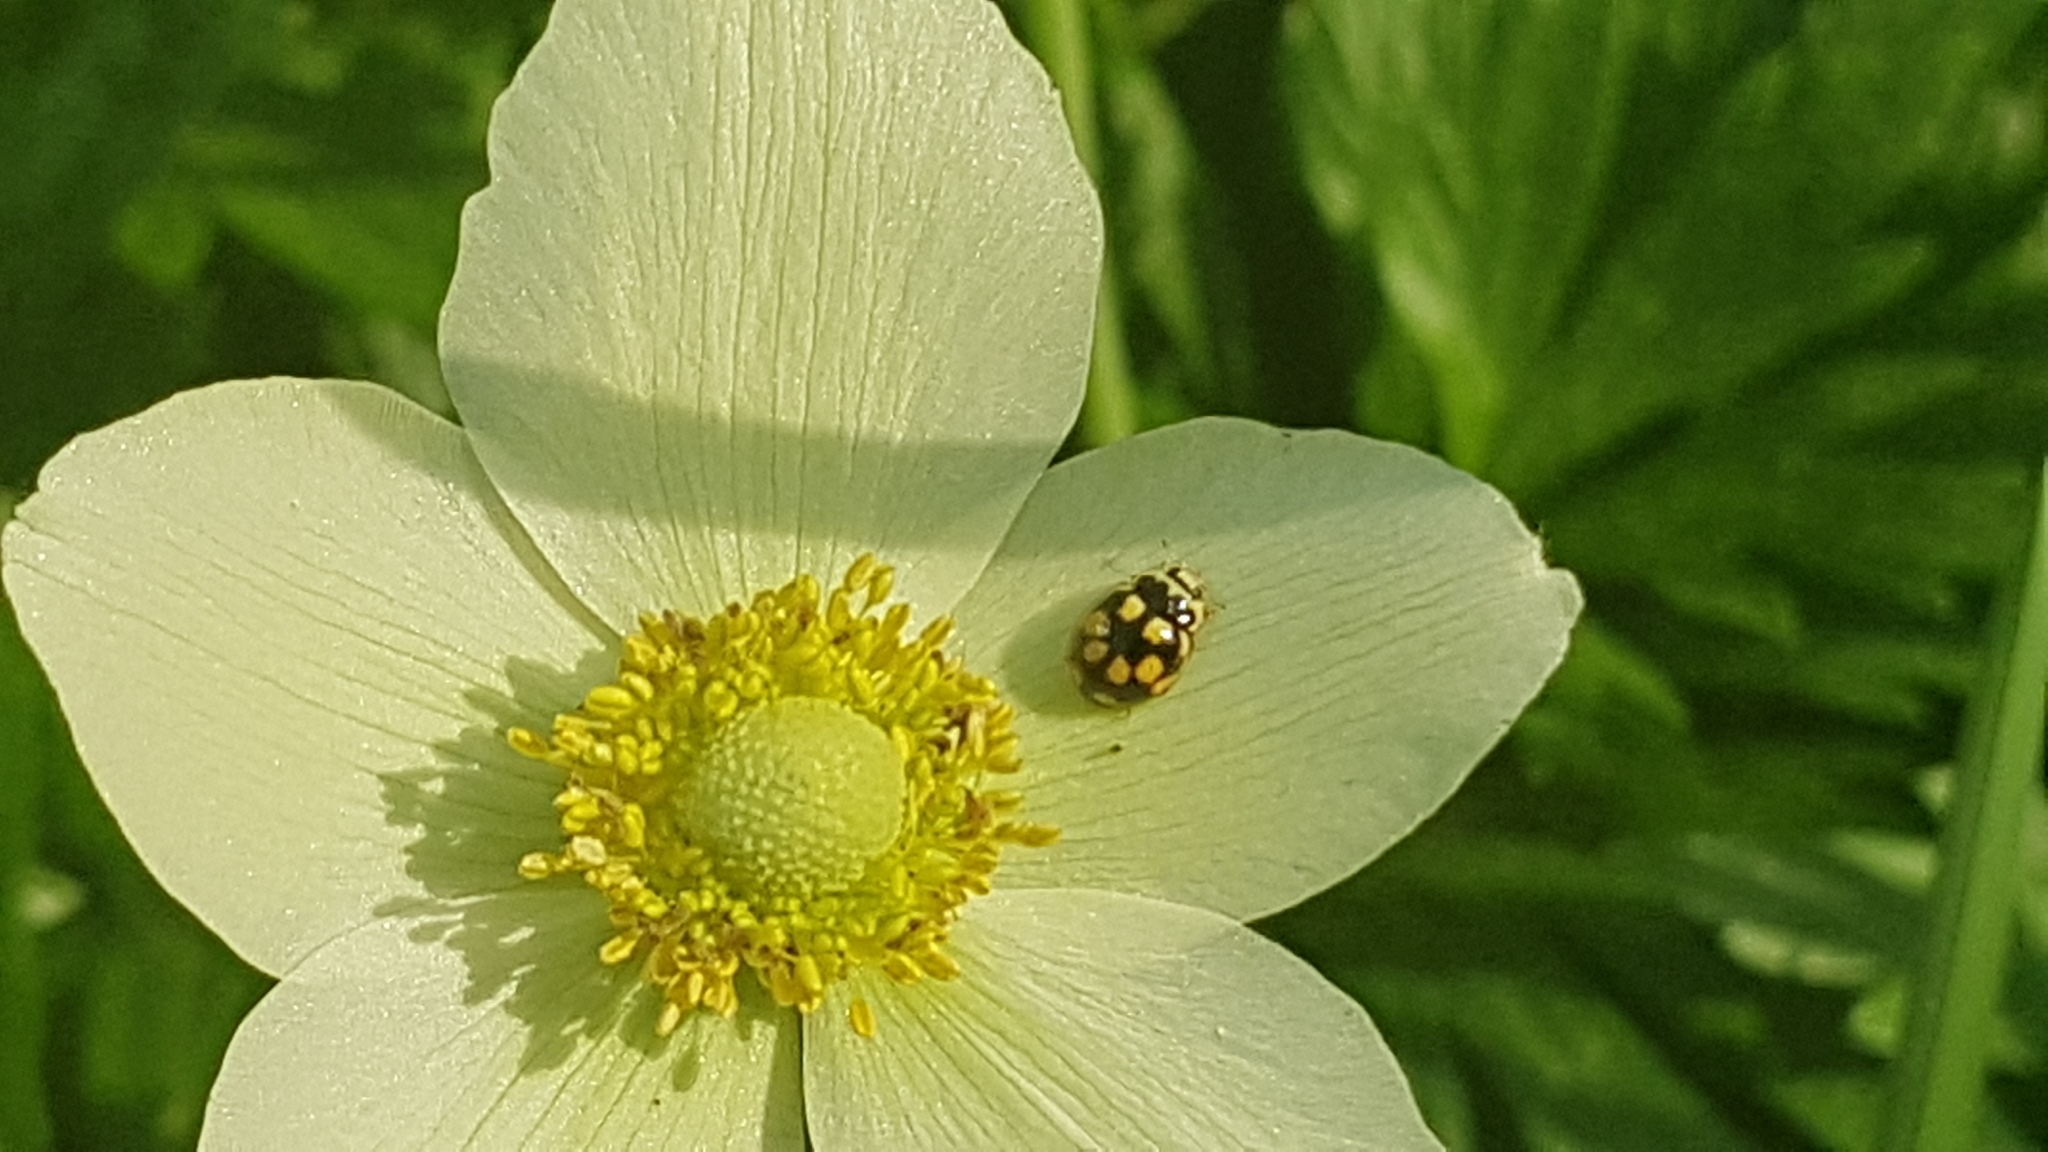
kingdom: Animalia
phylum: Arthropoda
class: Insecta
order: Coleoptera
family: Coccinellidae
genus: Propylaea
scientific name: Propylaea quatuordecimpunctata
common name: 14-spotted ladybird beetle
